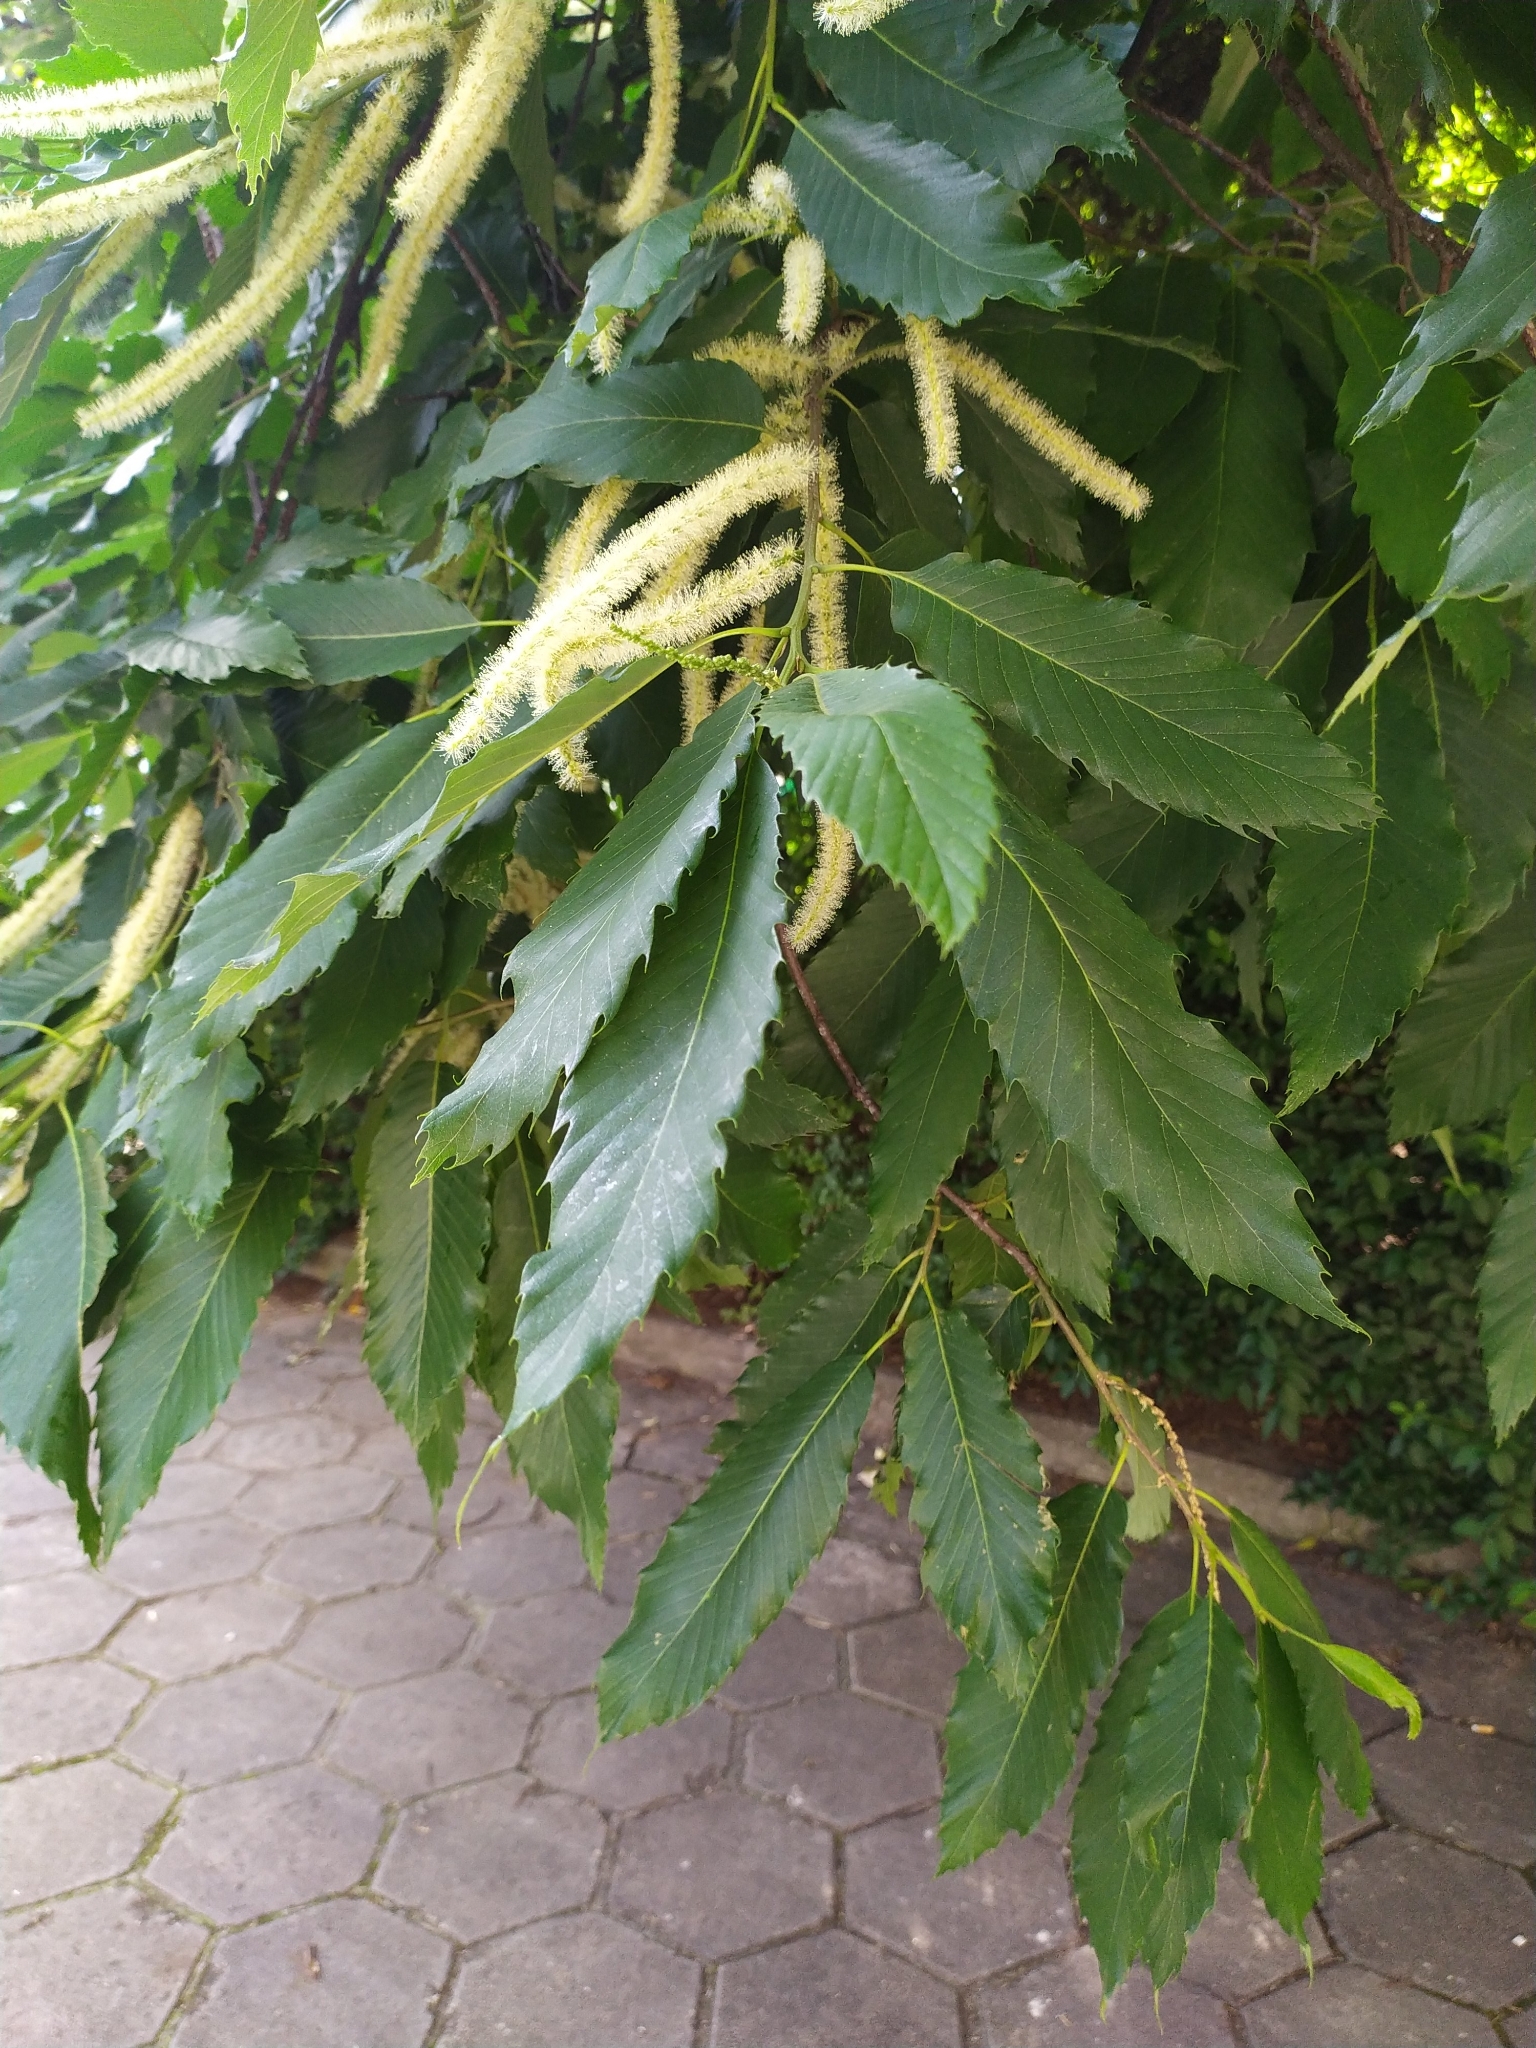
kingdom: Plantae
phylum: Tracheophyta
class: Magnoliopsida
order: Fagales
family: Fagaceae
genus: Castanea
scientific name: Castanea sativa
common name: Sweet chestnut
